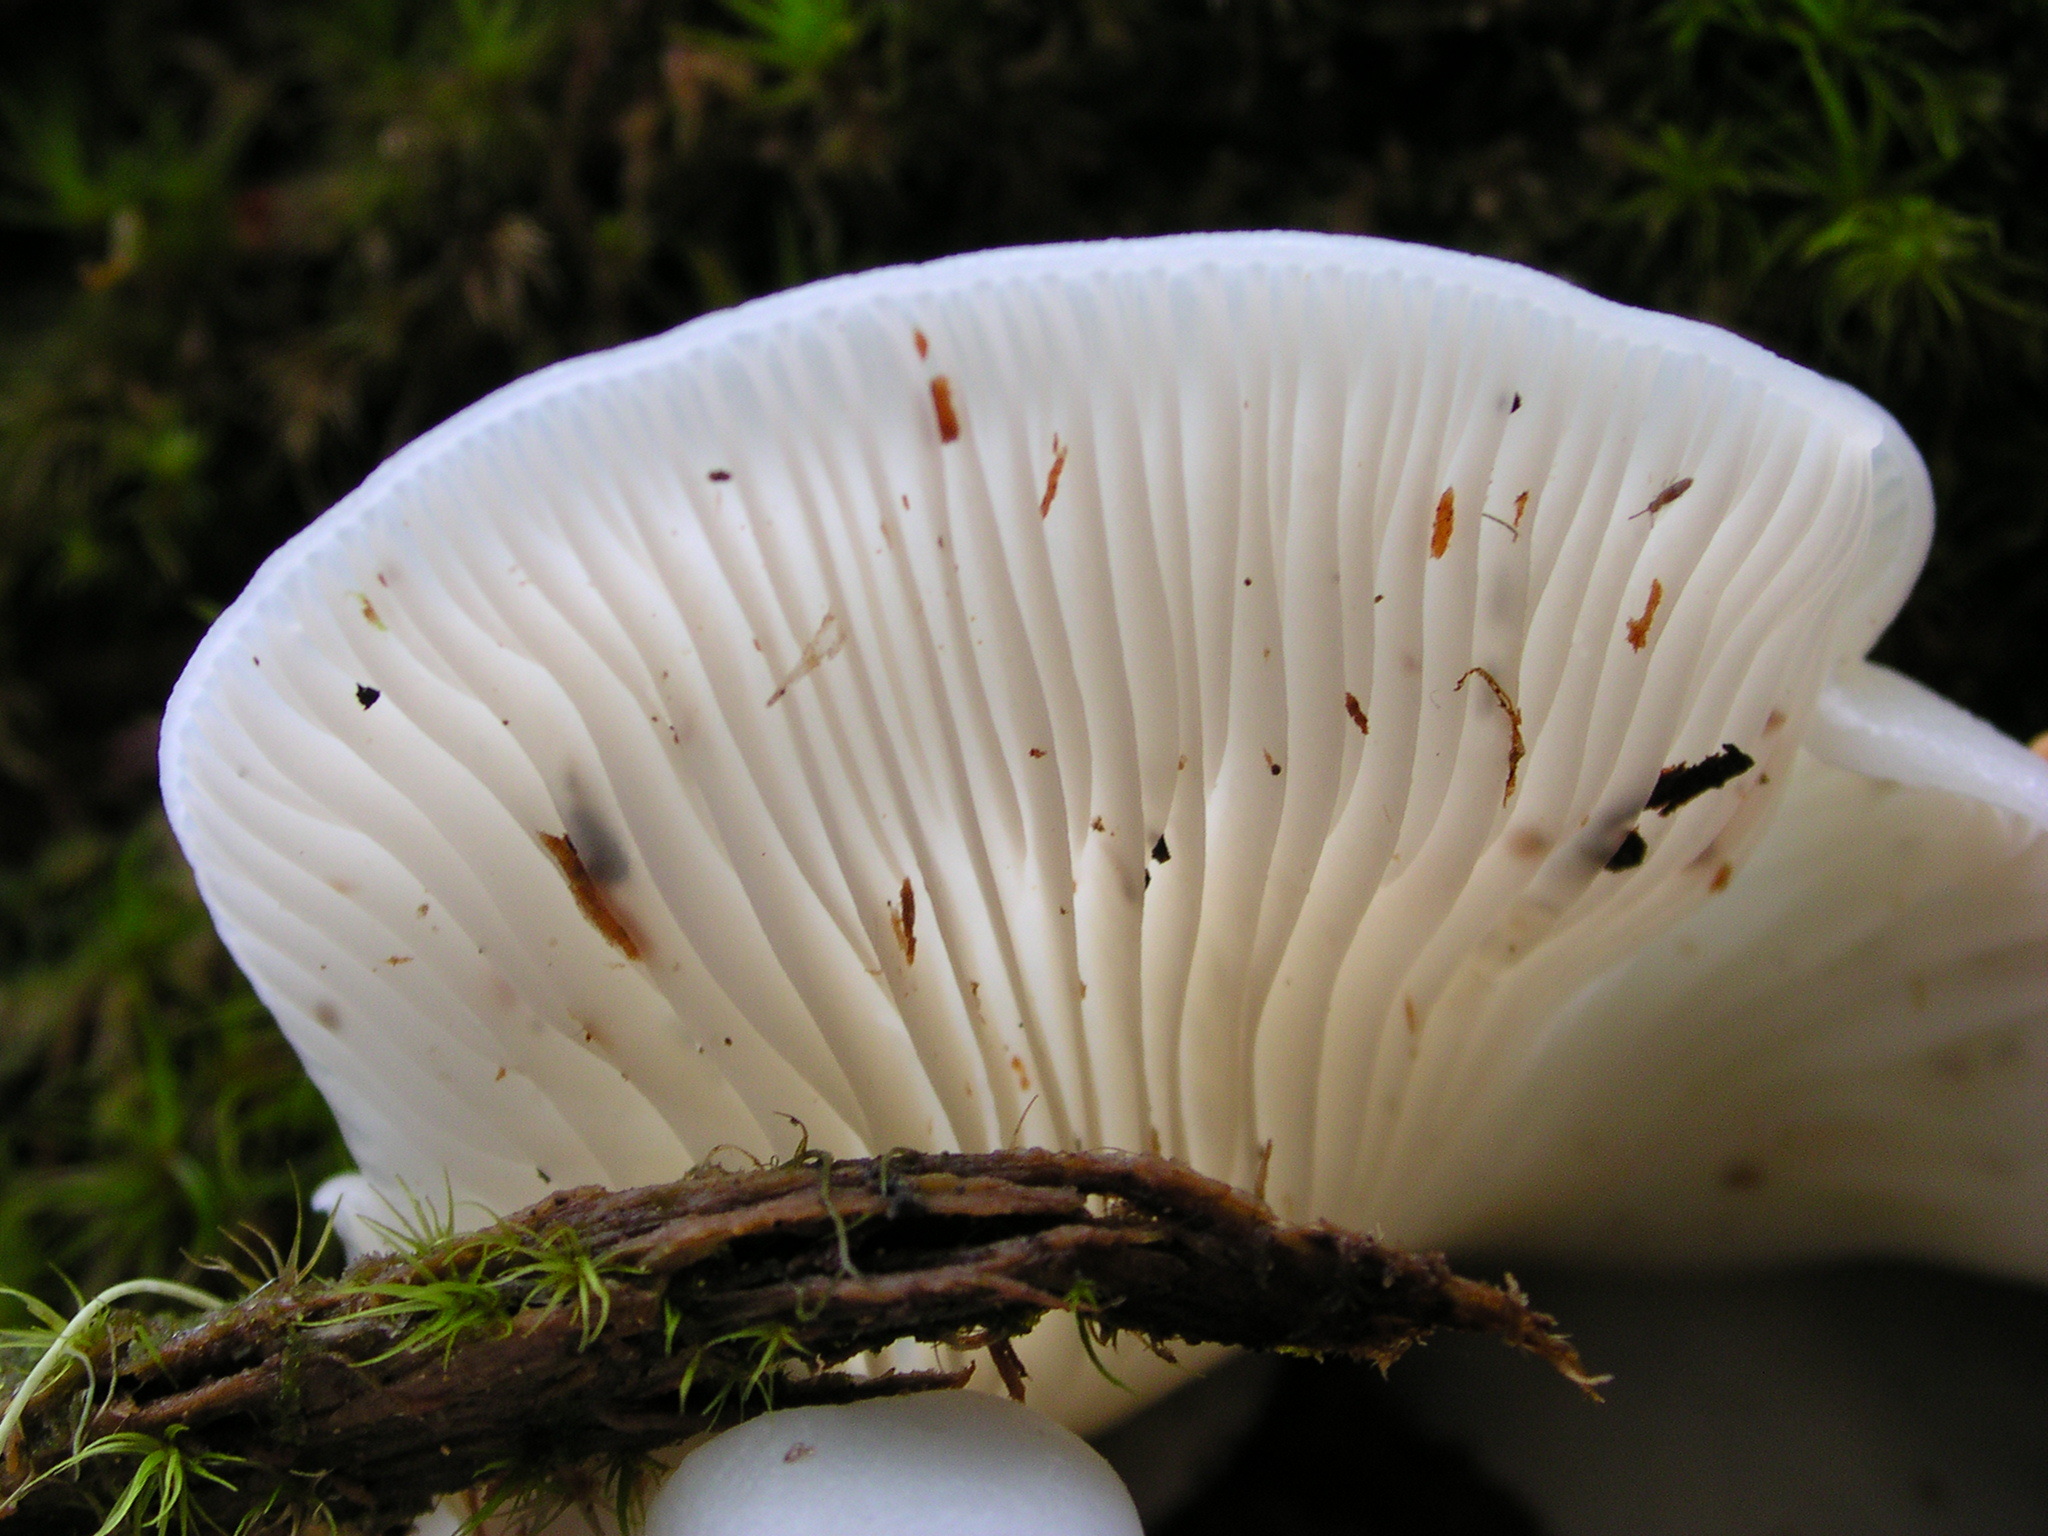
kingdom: Fungi
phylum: Basidiomycota
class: Agaricomycetes
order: Agaricales
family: Marasmiaceae
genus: Pleurocybella
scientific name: Pleurocybella porrigens
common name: Angel's wings
